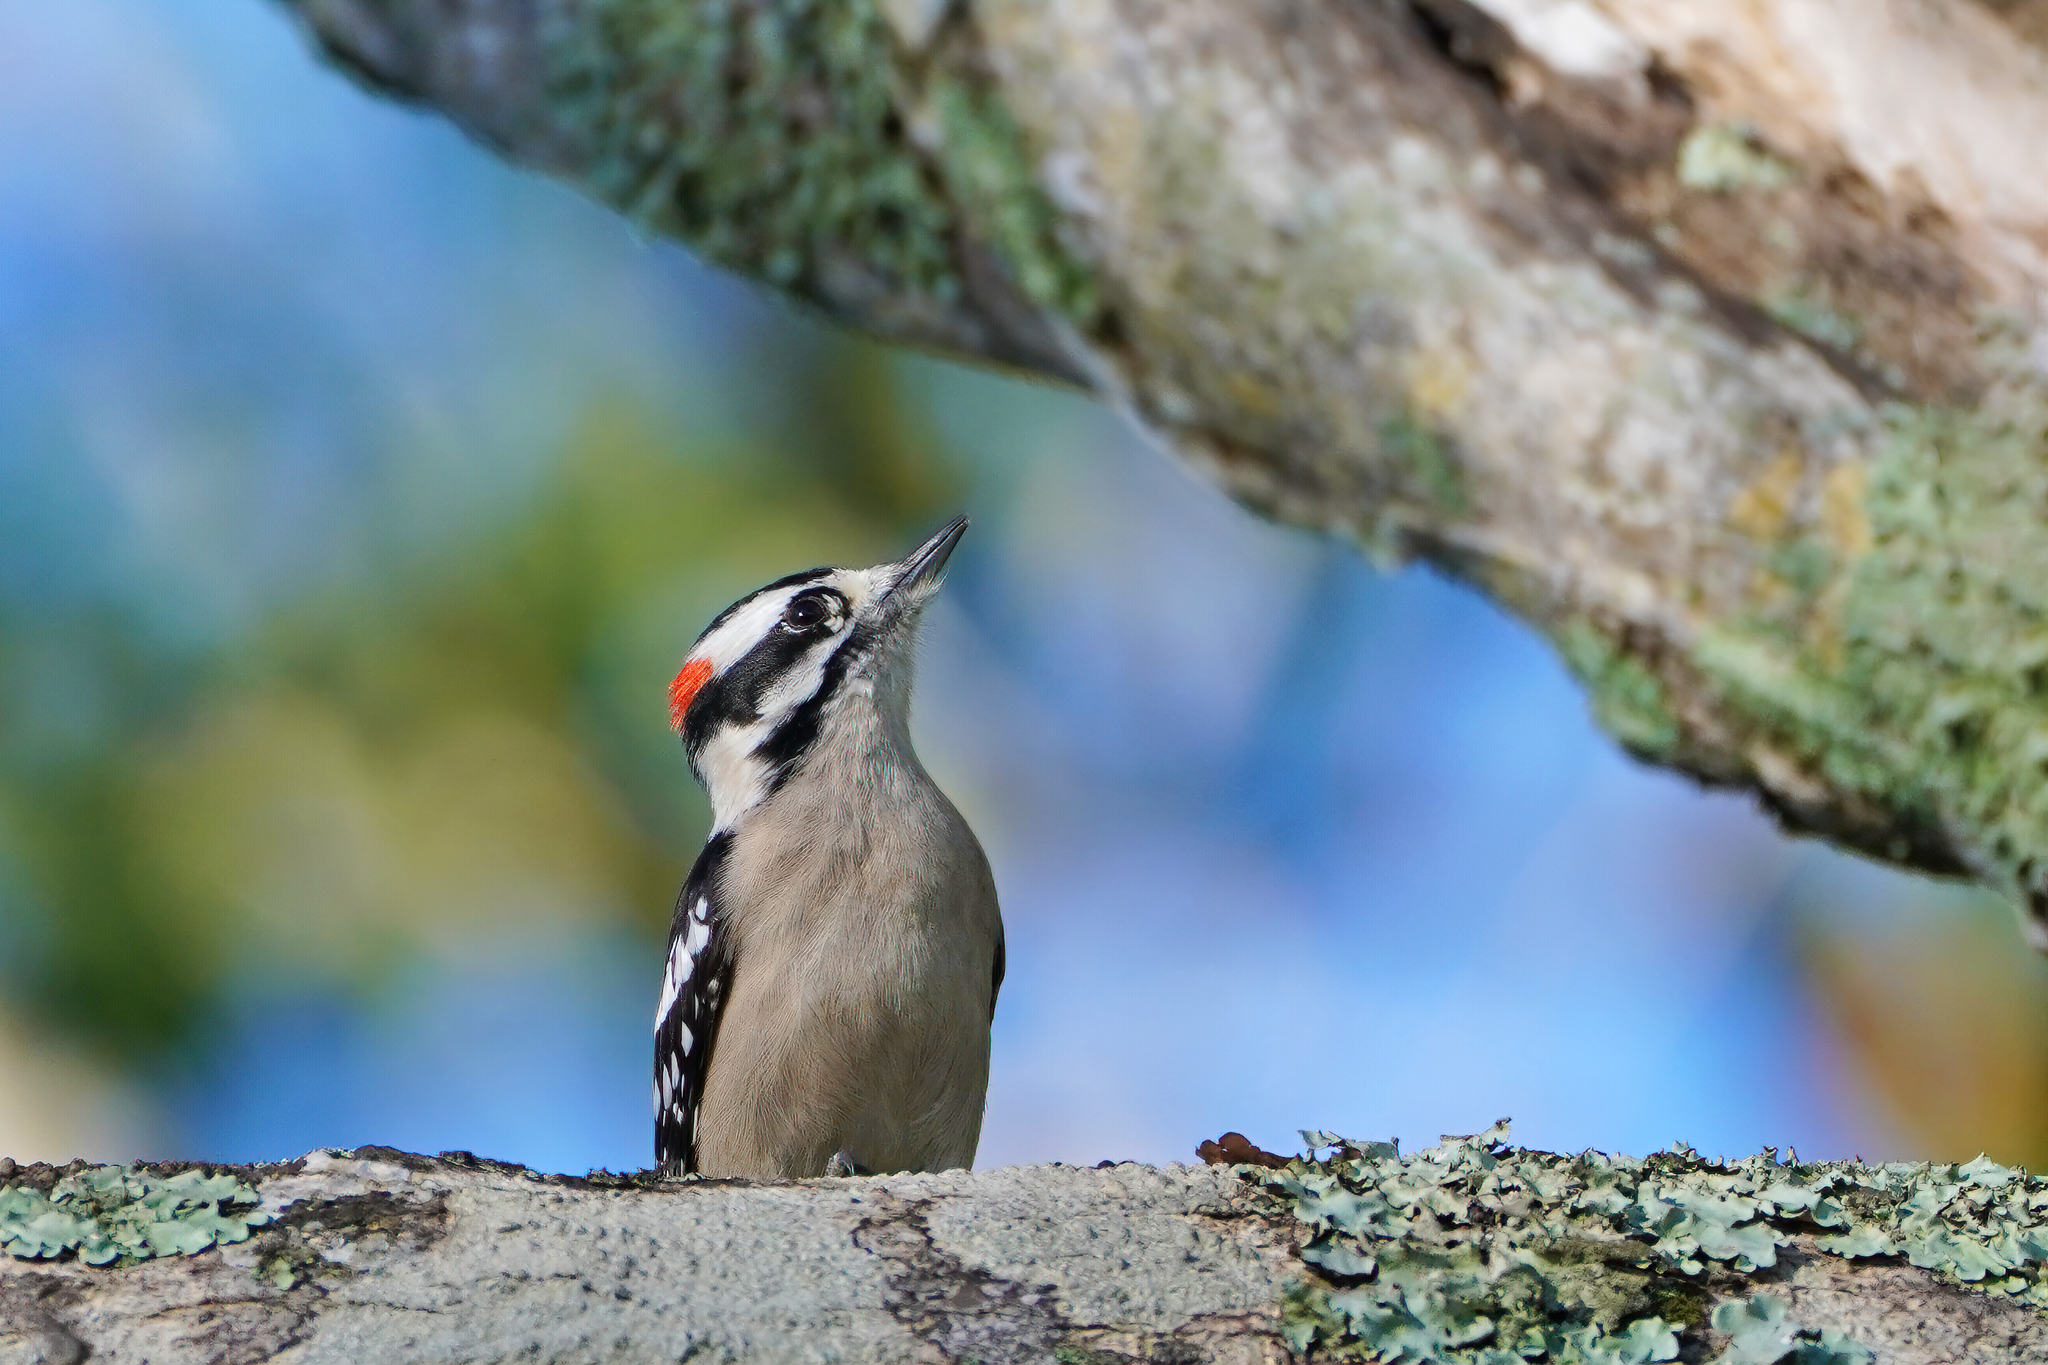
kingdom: Animalia
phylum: Chordata
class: Aves
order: Piciformes
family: Picidae
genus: Dryobates
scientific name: Dryobates pubescens
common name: Downy woodpecker
